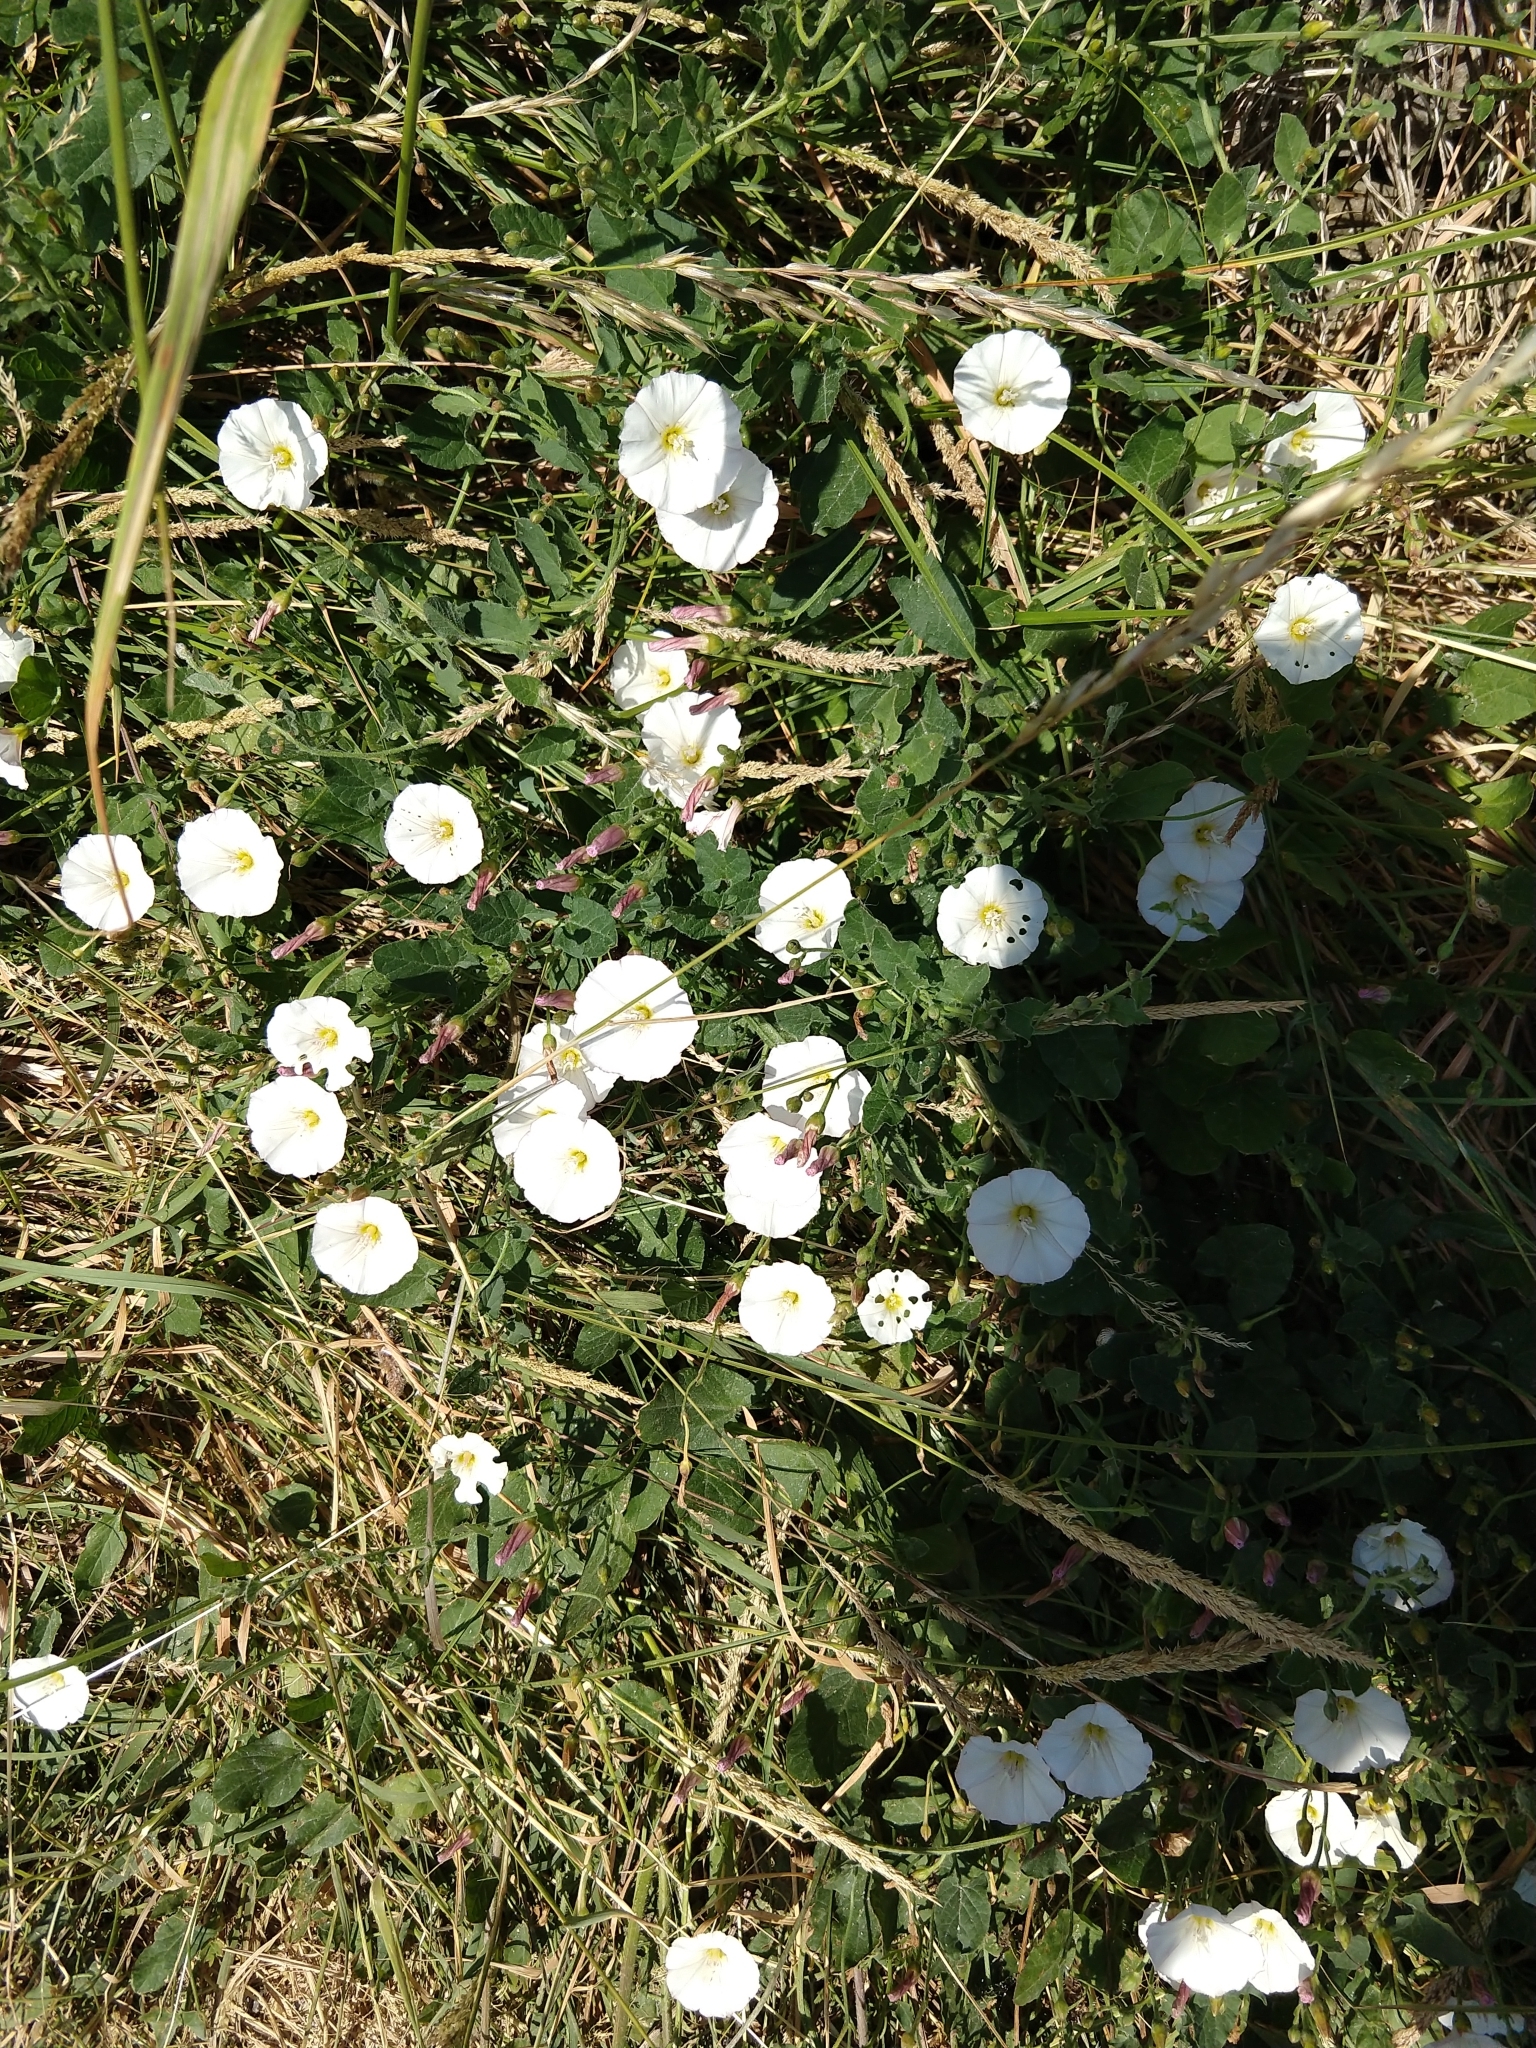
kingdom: Plantae
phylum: Tracheophyta
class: Magnoliopsida
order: Solanales
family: Convolvulaceae
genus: Convolvulus
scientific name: Convolvulus arvensis
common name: Field bindweed
